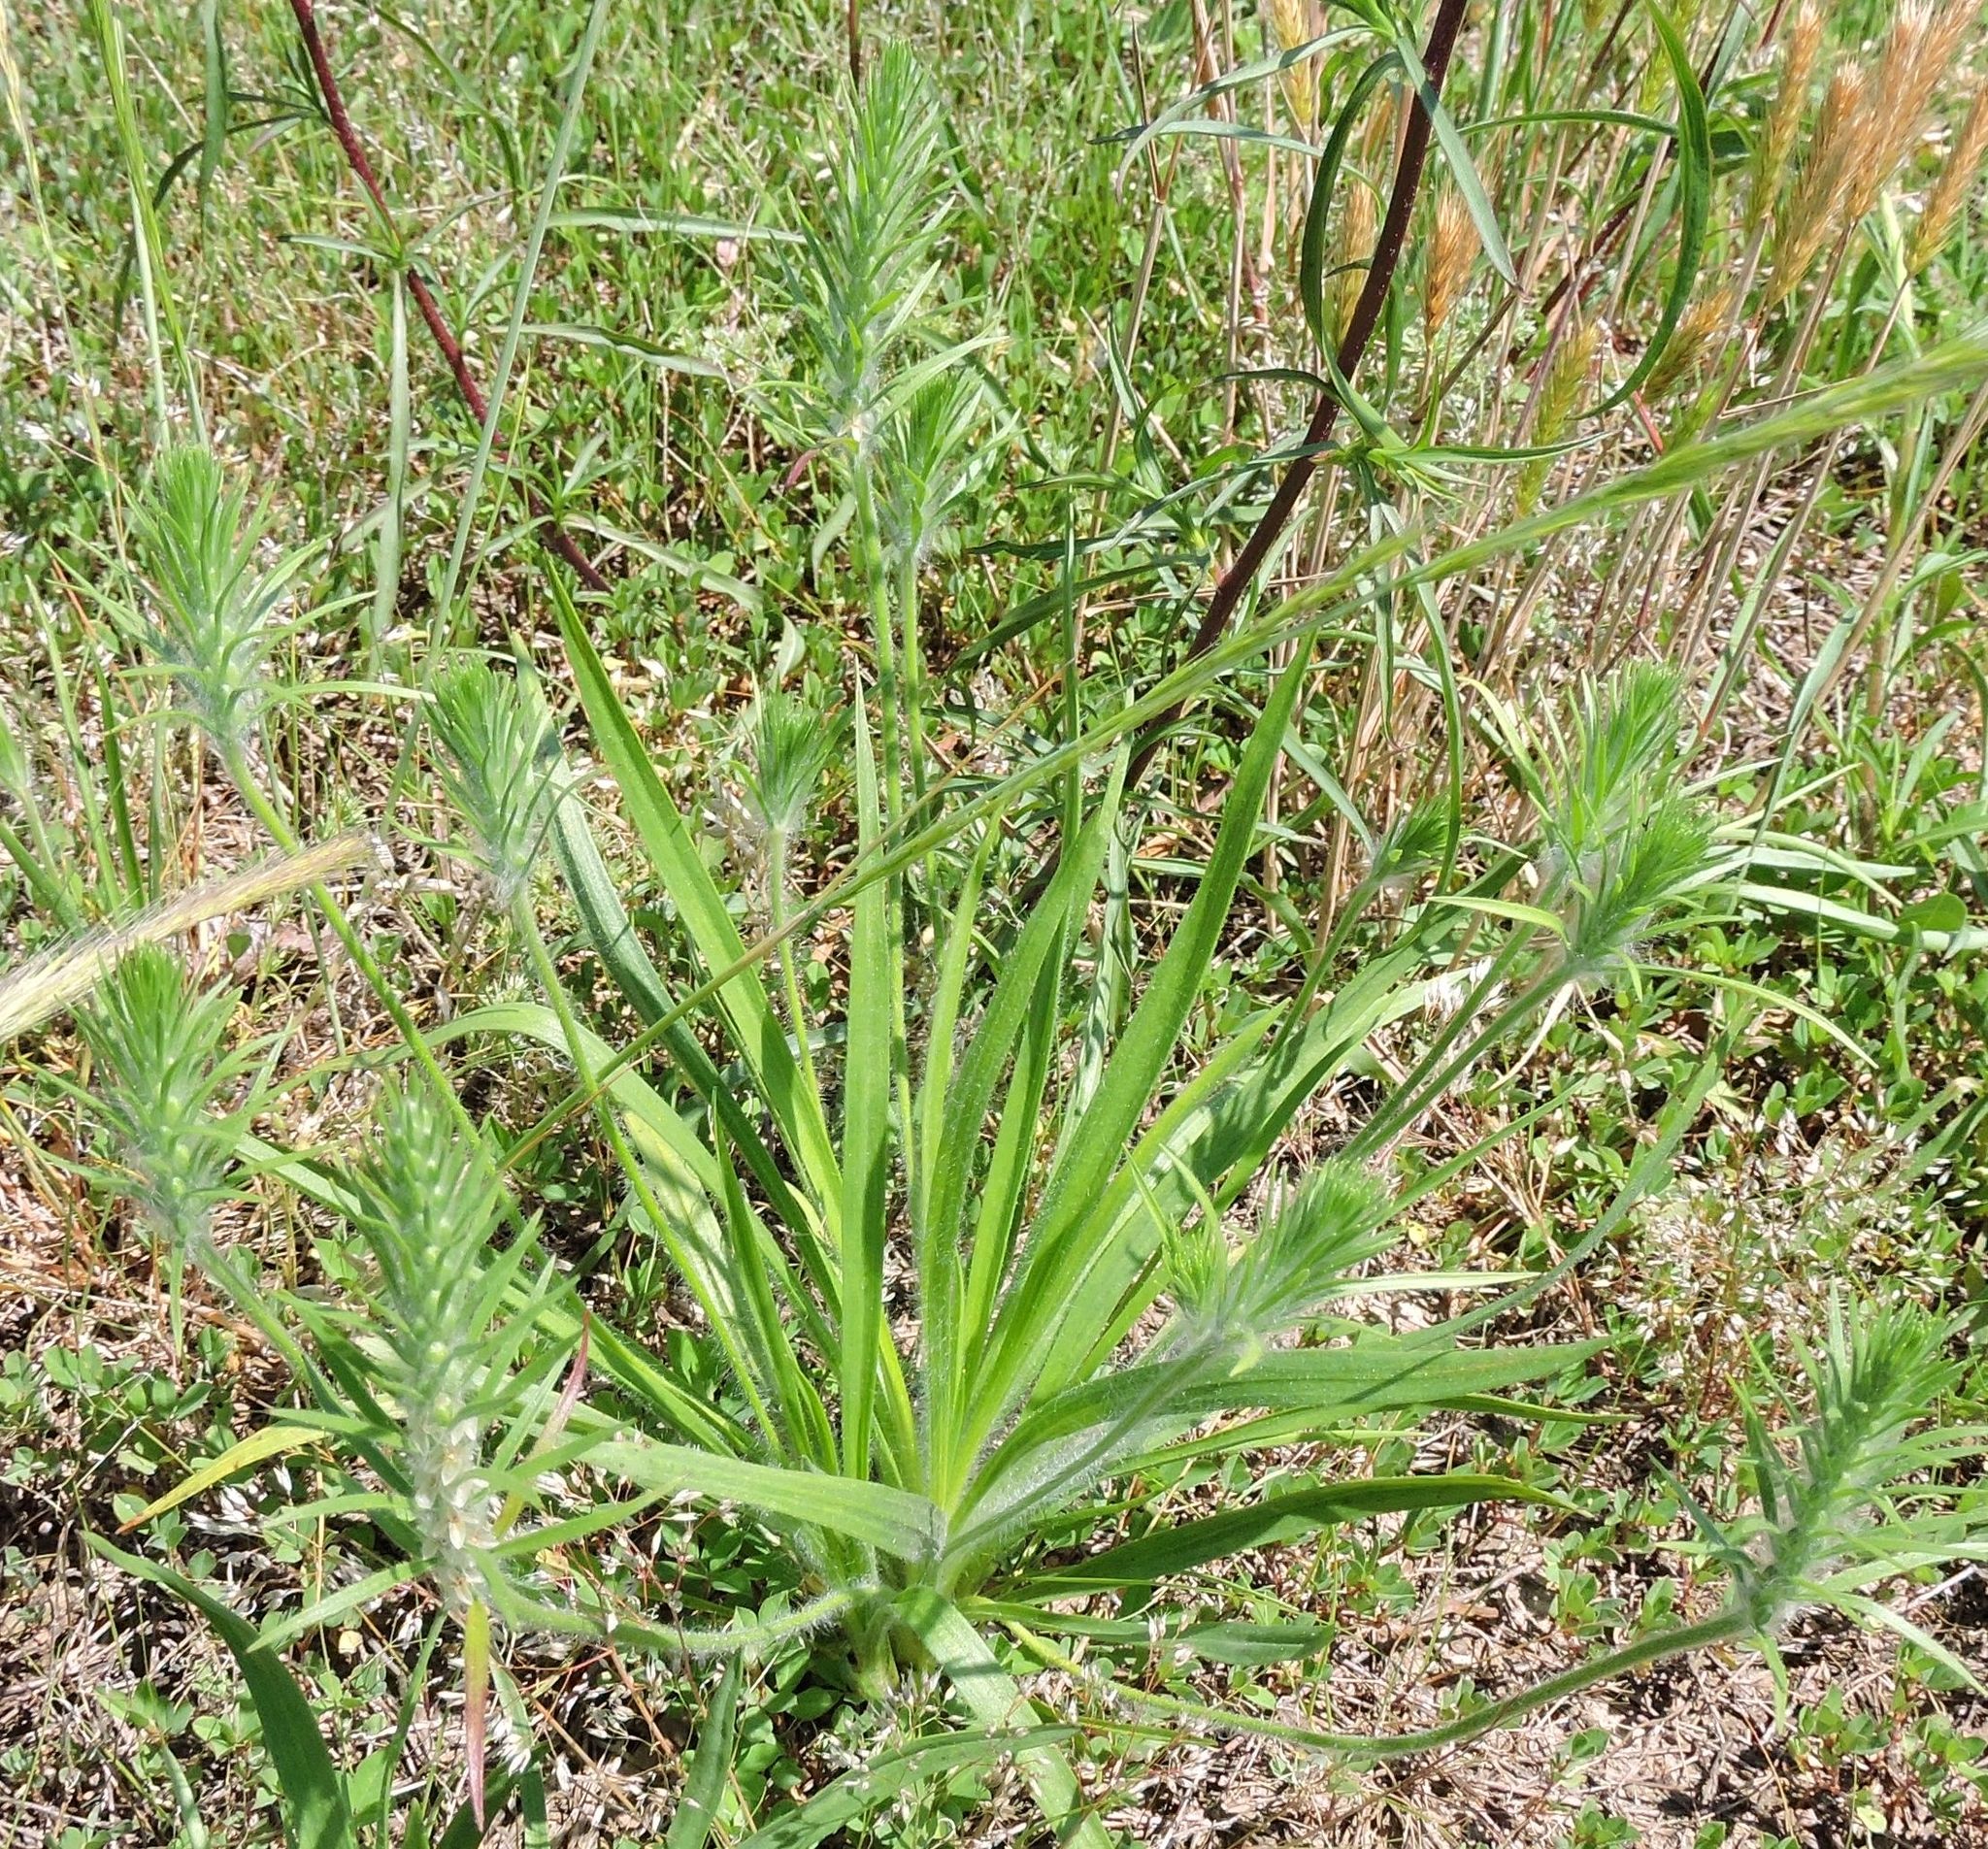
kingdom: Plantae
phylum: Tracheophyta
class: Magnoliopsida
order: Lamiales
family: Plantaginaceae
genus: Plantago
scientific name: Plantago aristata
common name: Bracted plantain
